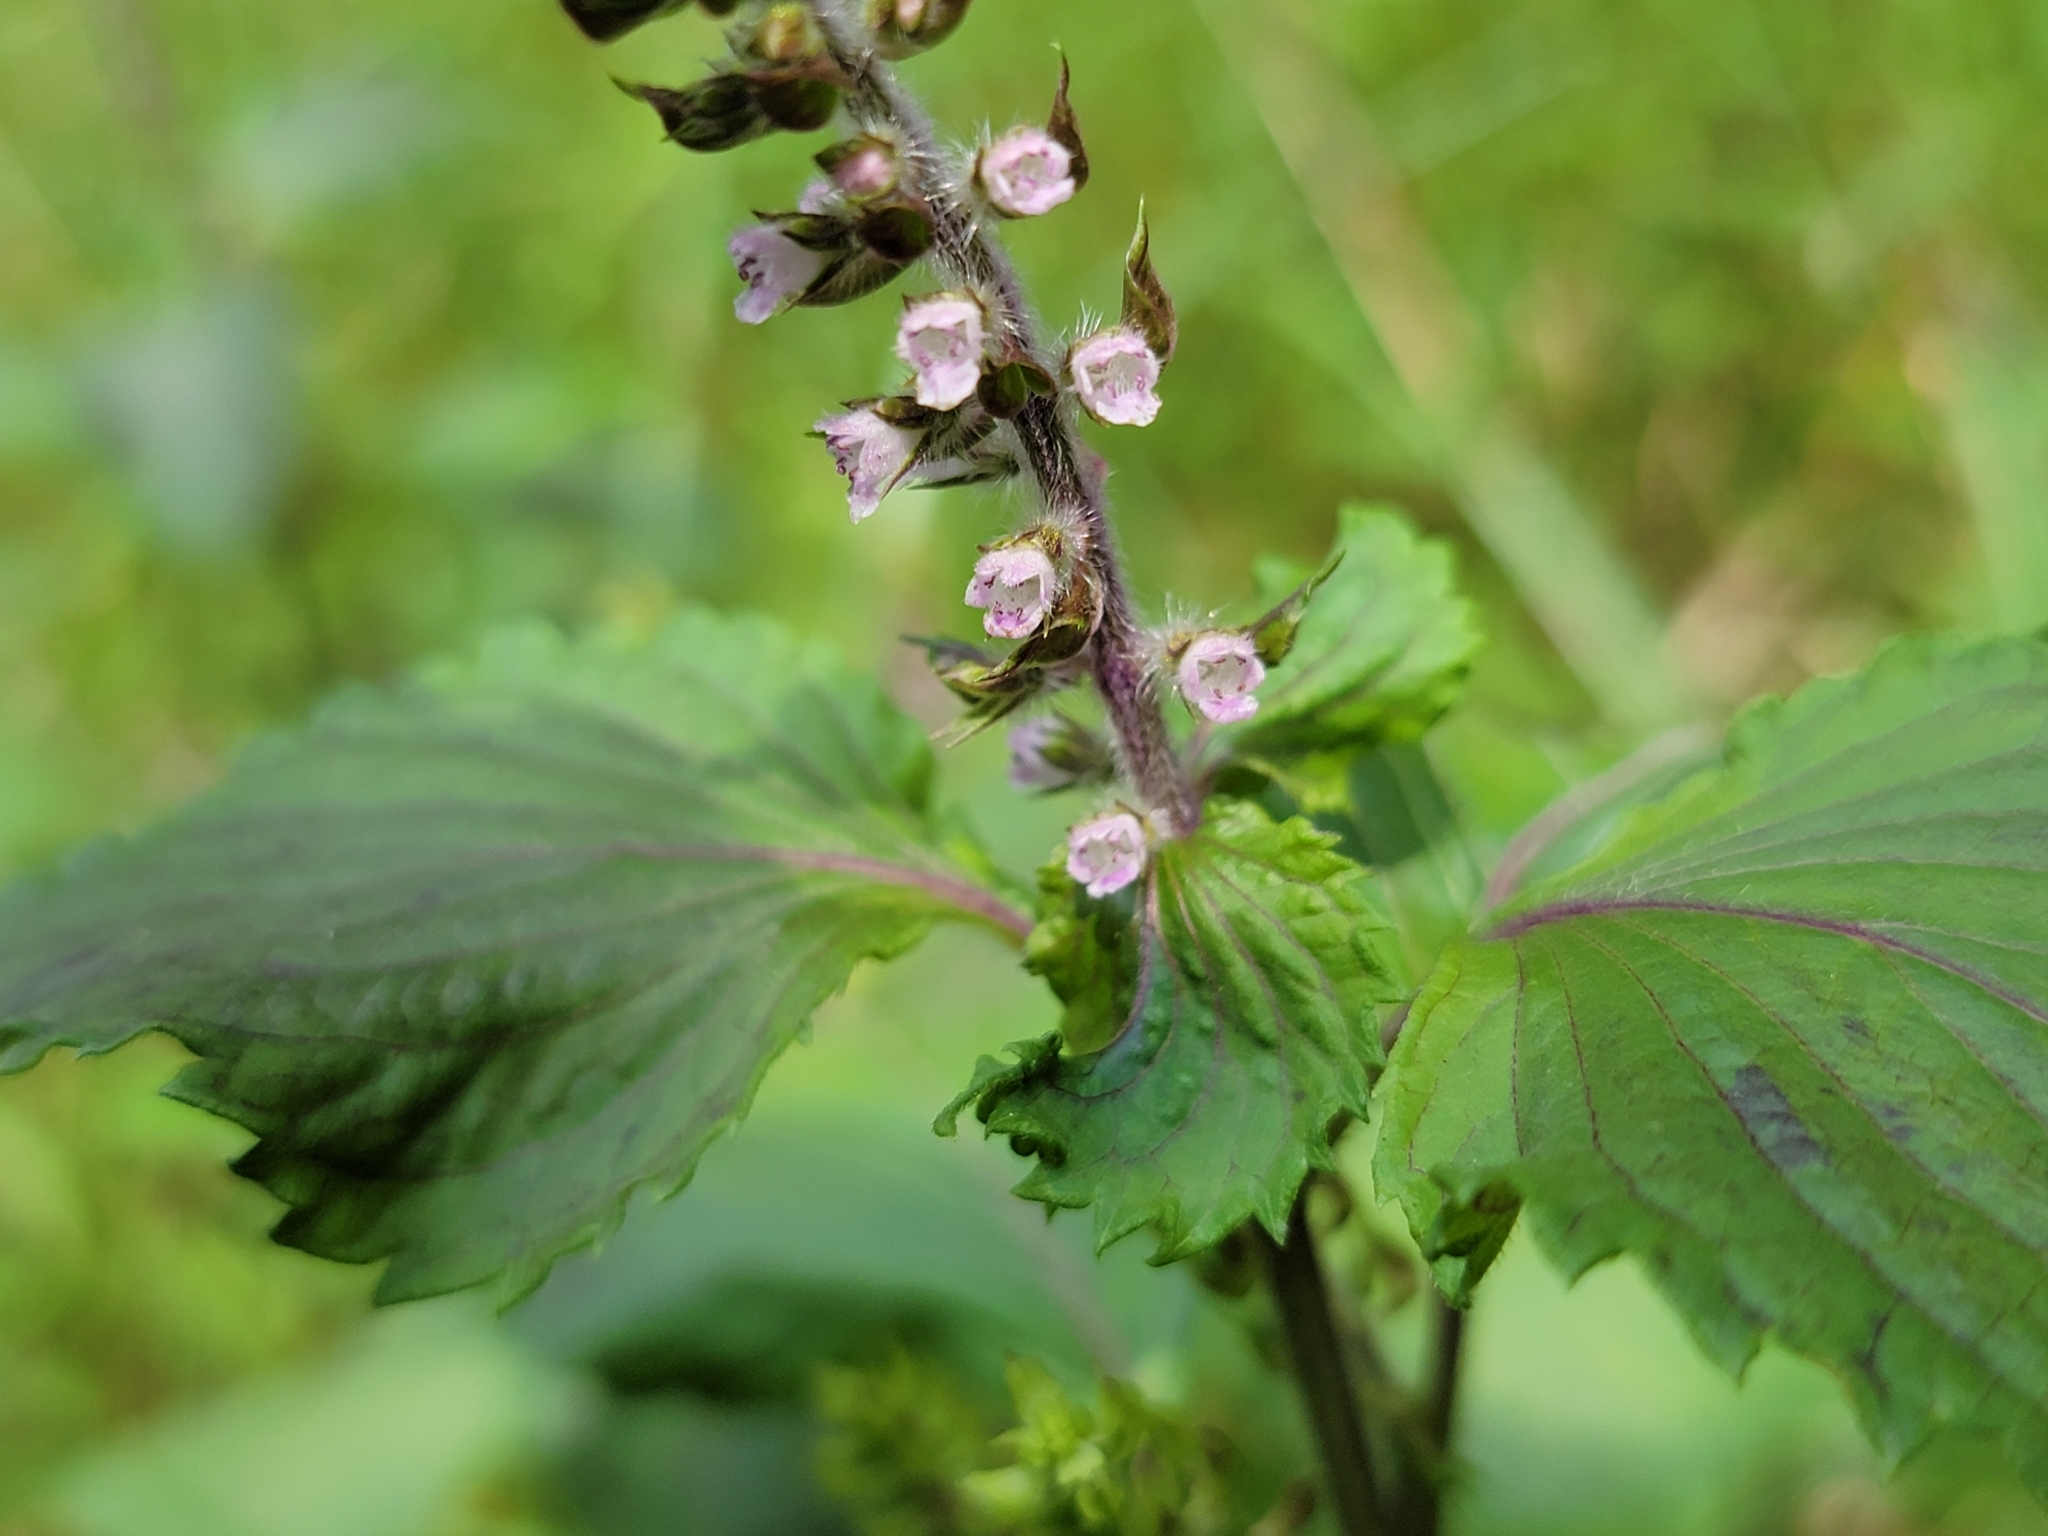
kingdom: Plantae
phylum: Tracheophyta
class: Magnoliopsida
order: Lamiales
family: Lamiaceae
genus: Perilla
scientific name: Perilla frutescens
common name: Perilla
